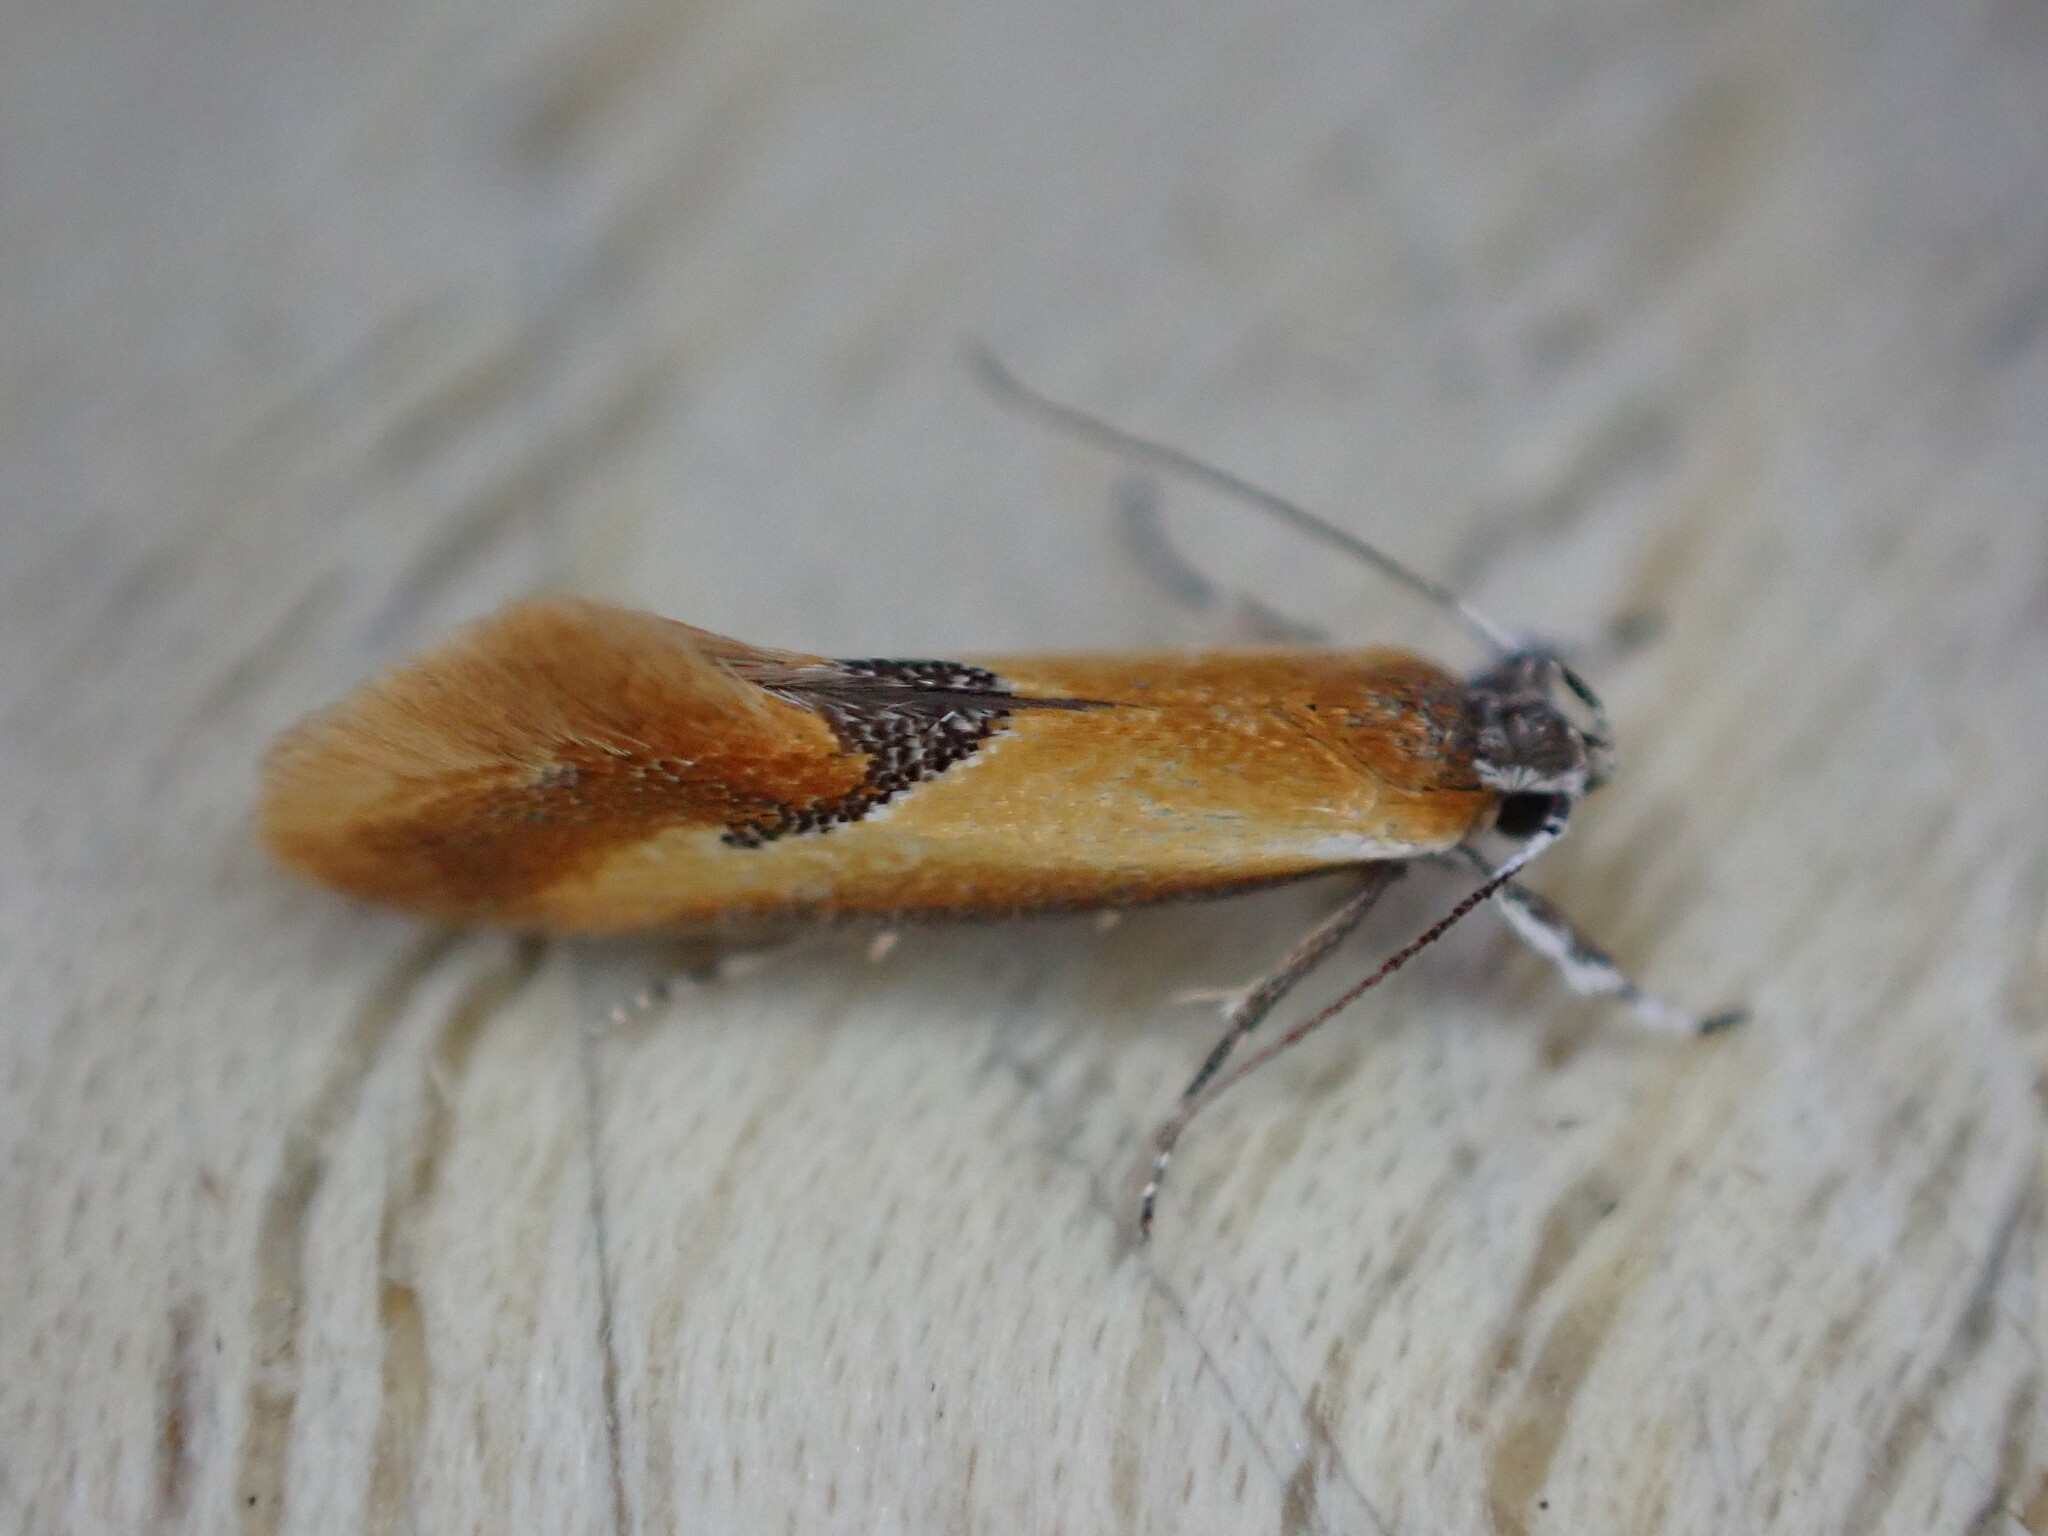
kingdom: Animalia
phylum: Arthropoda
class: Insecta
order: Lepidoptera
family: Oecophoridae
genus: Batia
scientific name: Batia lunaris
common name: Moth
